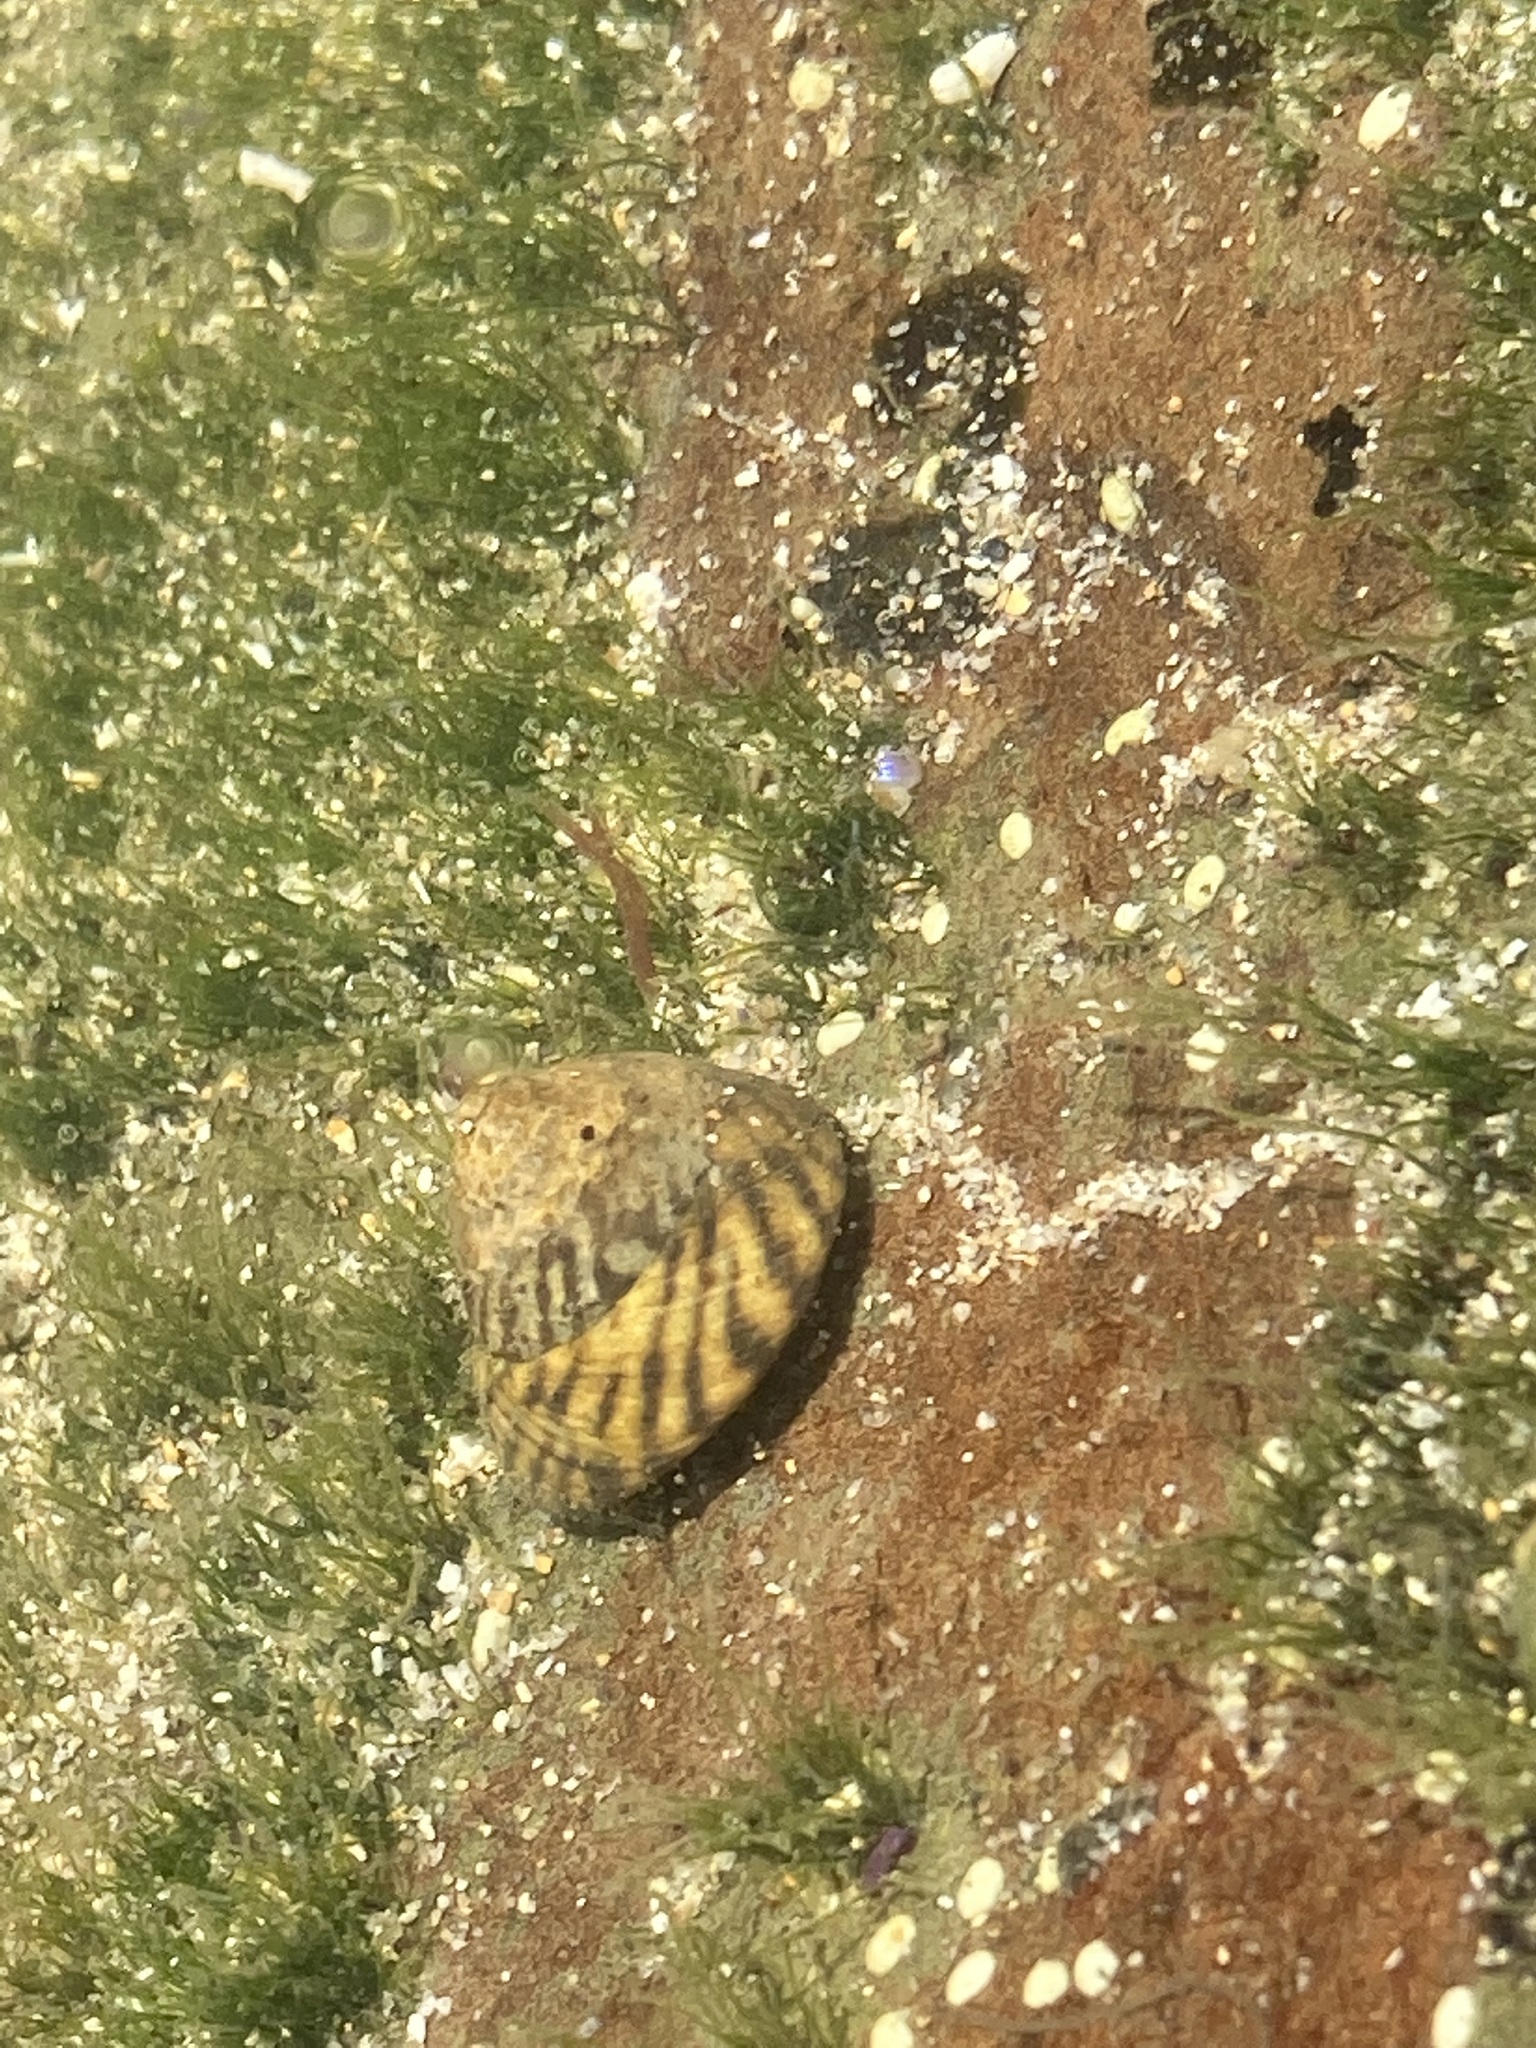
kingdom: Animalia
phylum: Mollusca
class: Gastropoda
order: Littorinimorpha
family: Littorinidae
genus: Bembicium
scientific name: Bembicium nanum
